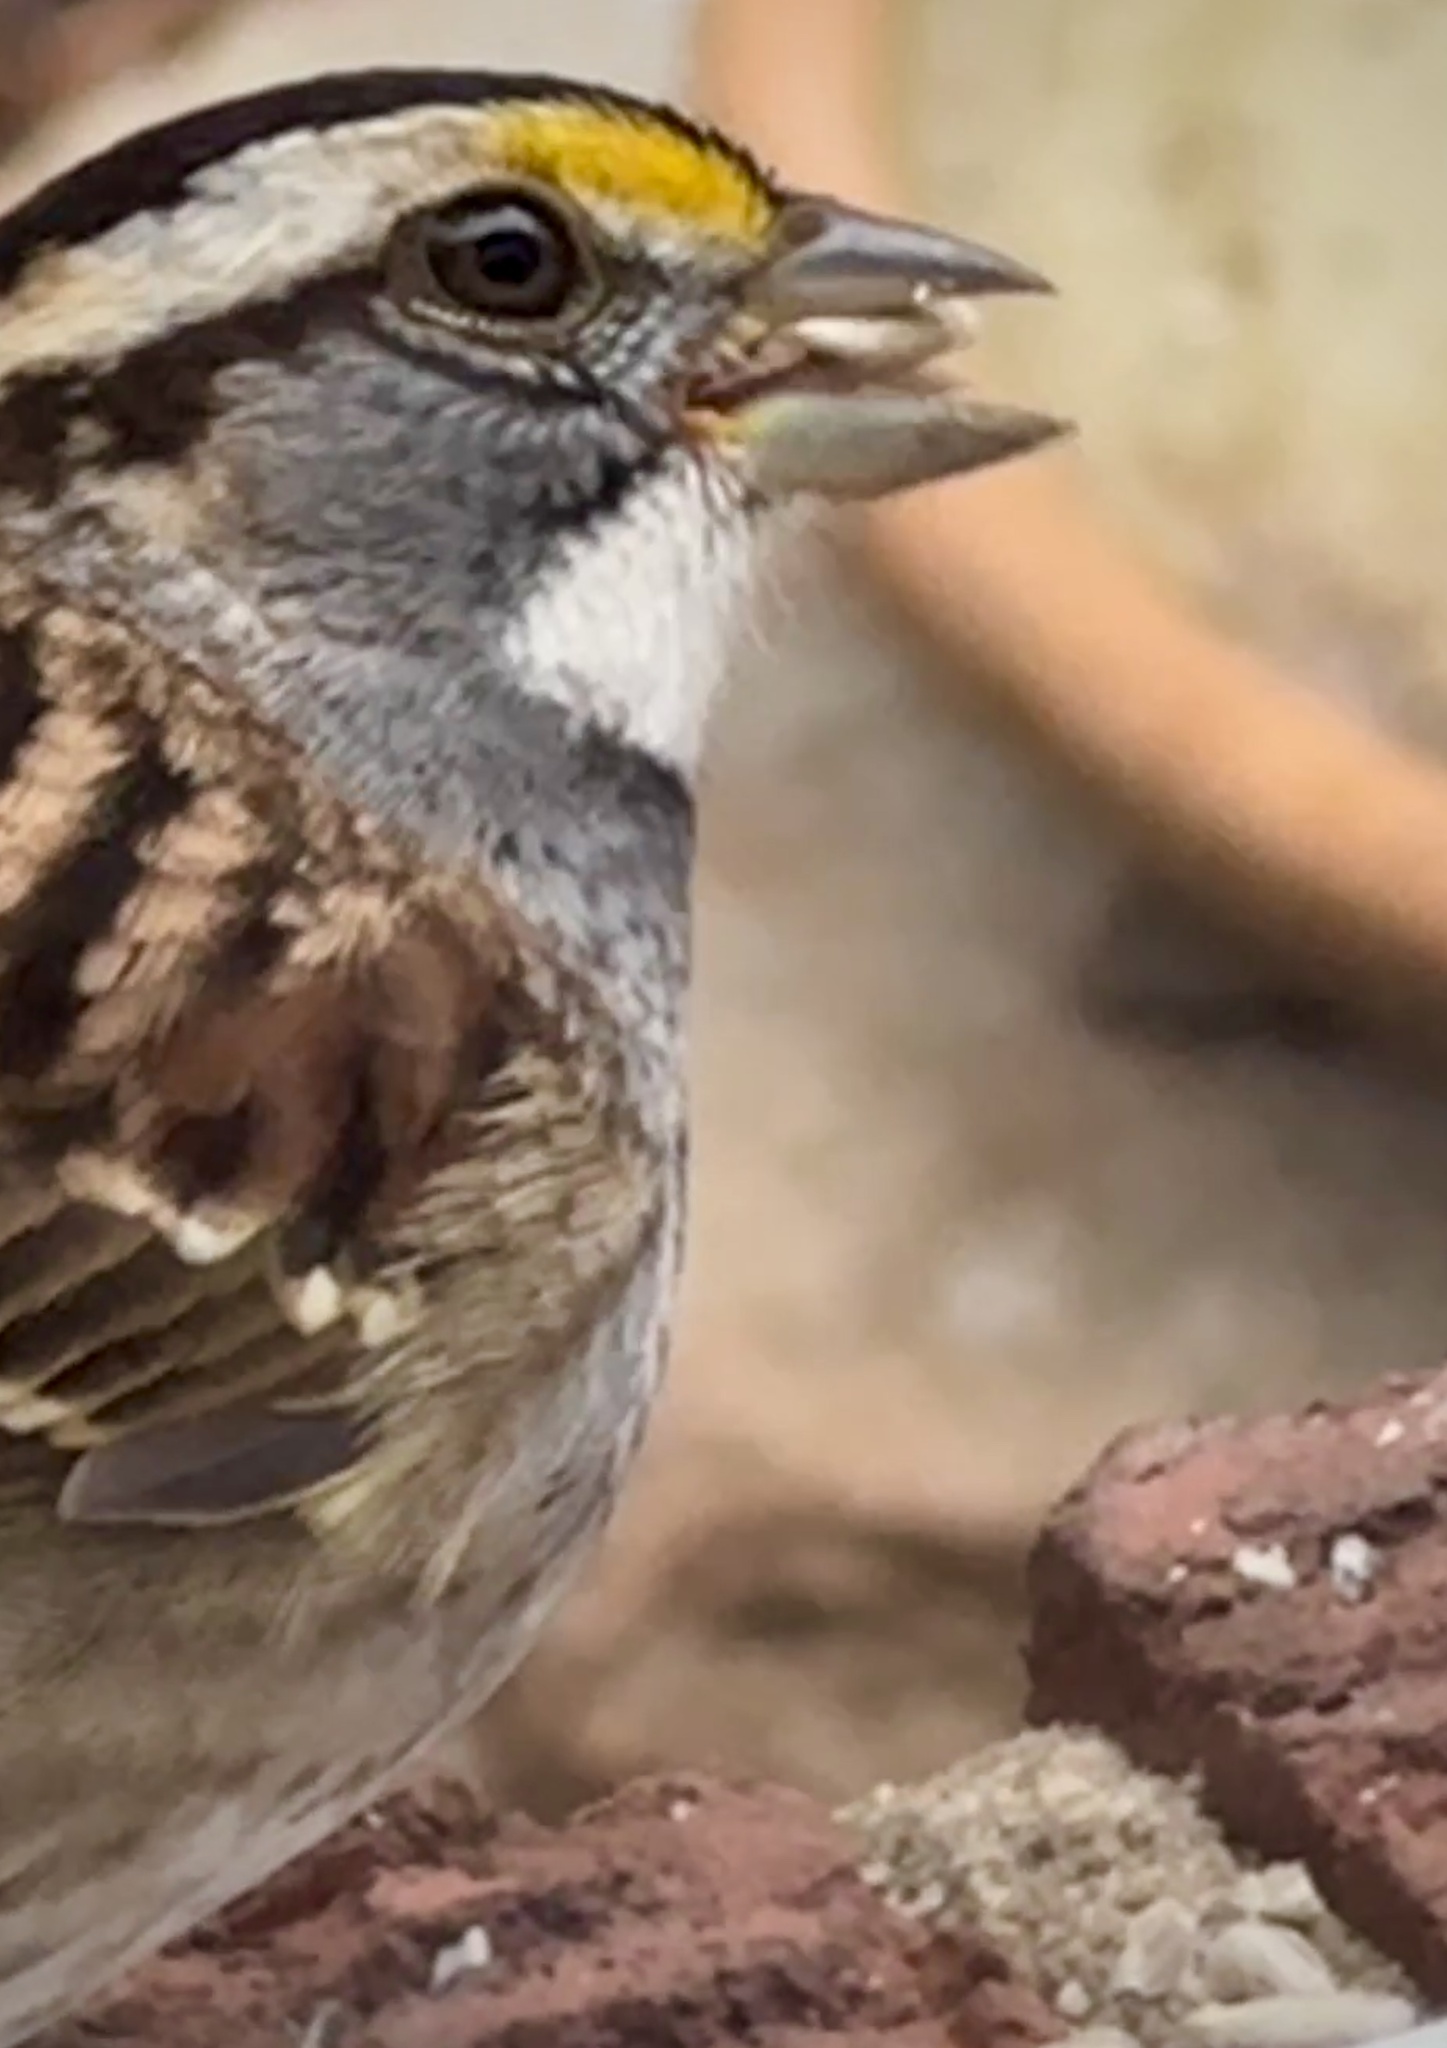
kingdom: Animalia
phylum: Chordata
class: Aves
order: Passeriformes
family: Passerellidae
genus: Zonotrichia
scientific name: Zonotrichia albicollis
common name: White-throated sparrow
